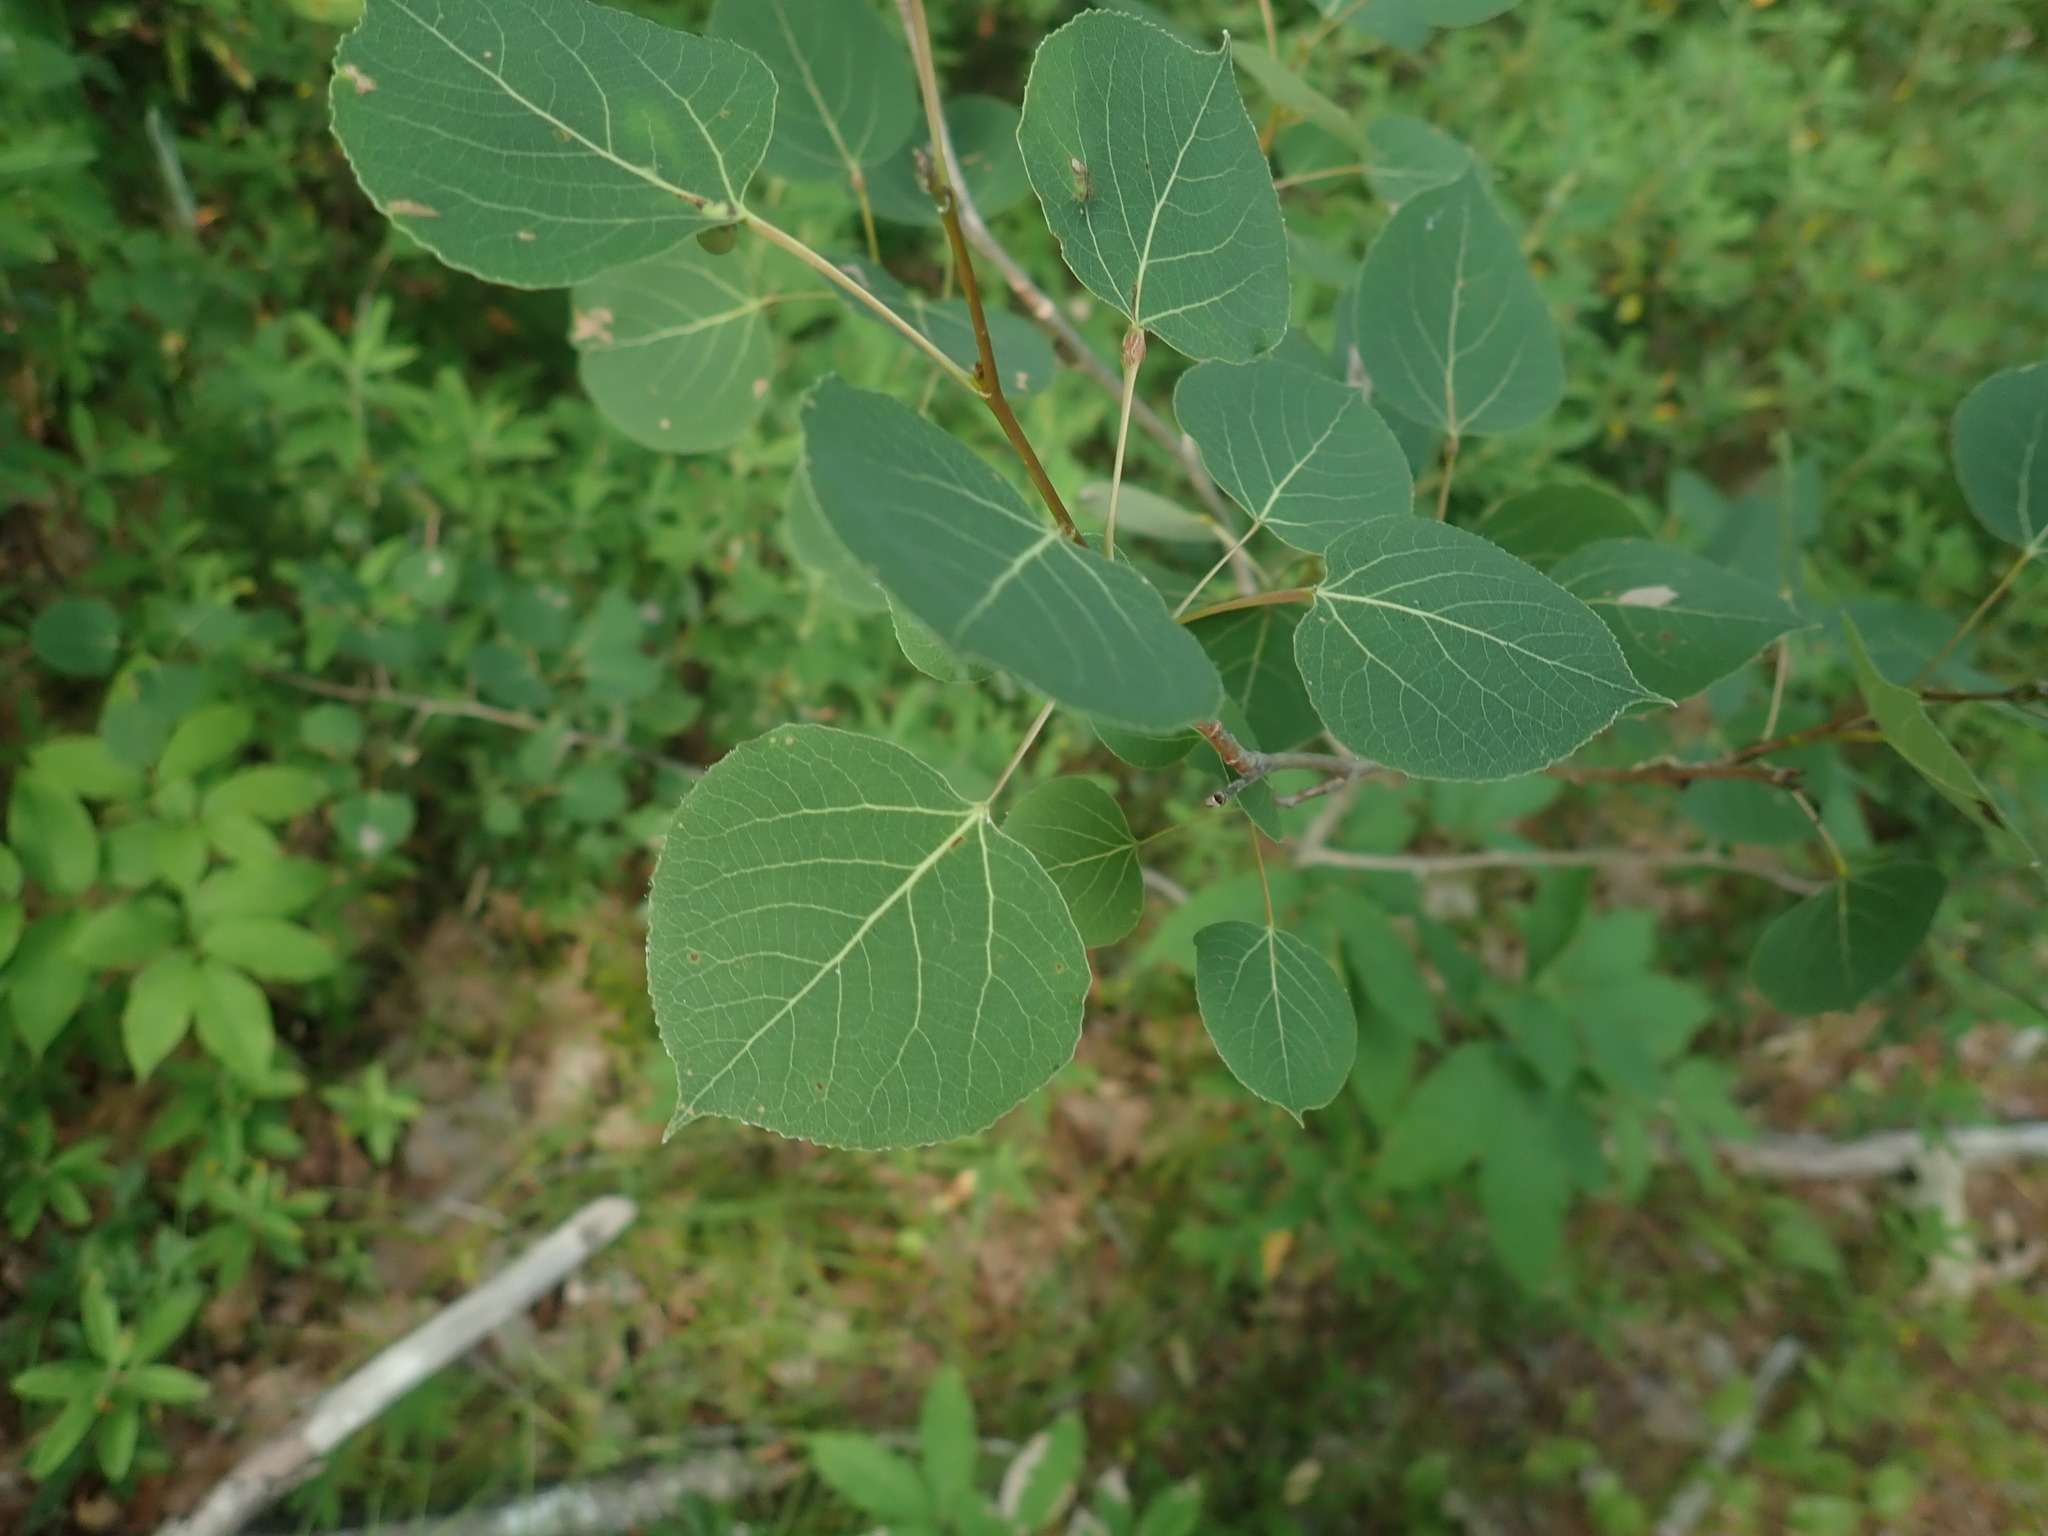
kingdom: Plantae
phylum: Tracheophyta
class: Magnoliopsida
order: Malpighiales
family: Salicaceae
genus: Populus
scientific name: Populus tremuloides
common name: Quaking aspen
